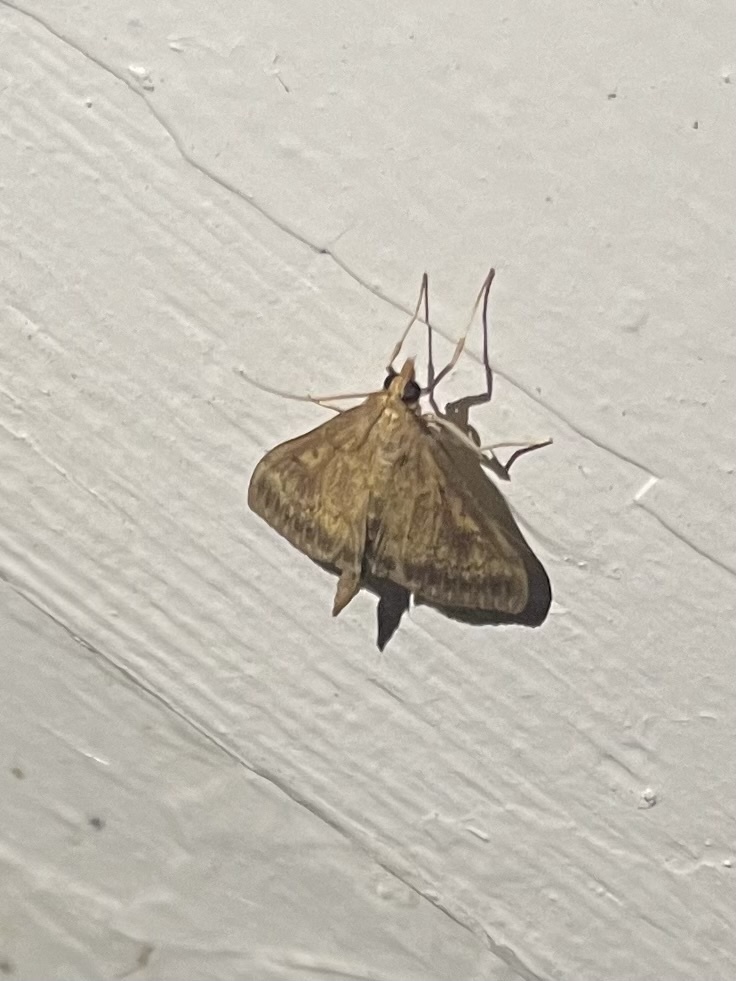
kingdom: Animalia
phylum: Arthropoda
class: Insecta
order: Lepidoptera
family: Crambidae
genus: Ostrinia
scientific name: Ostrinia nubilalis
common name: European corn borer
